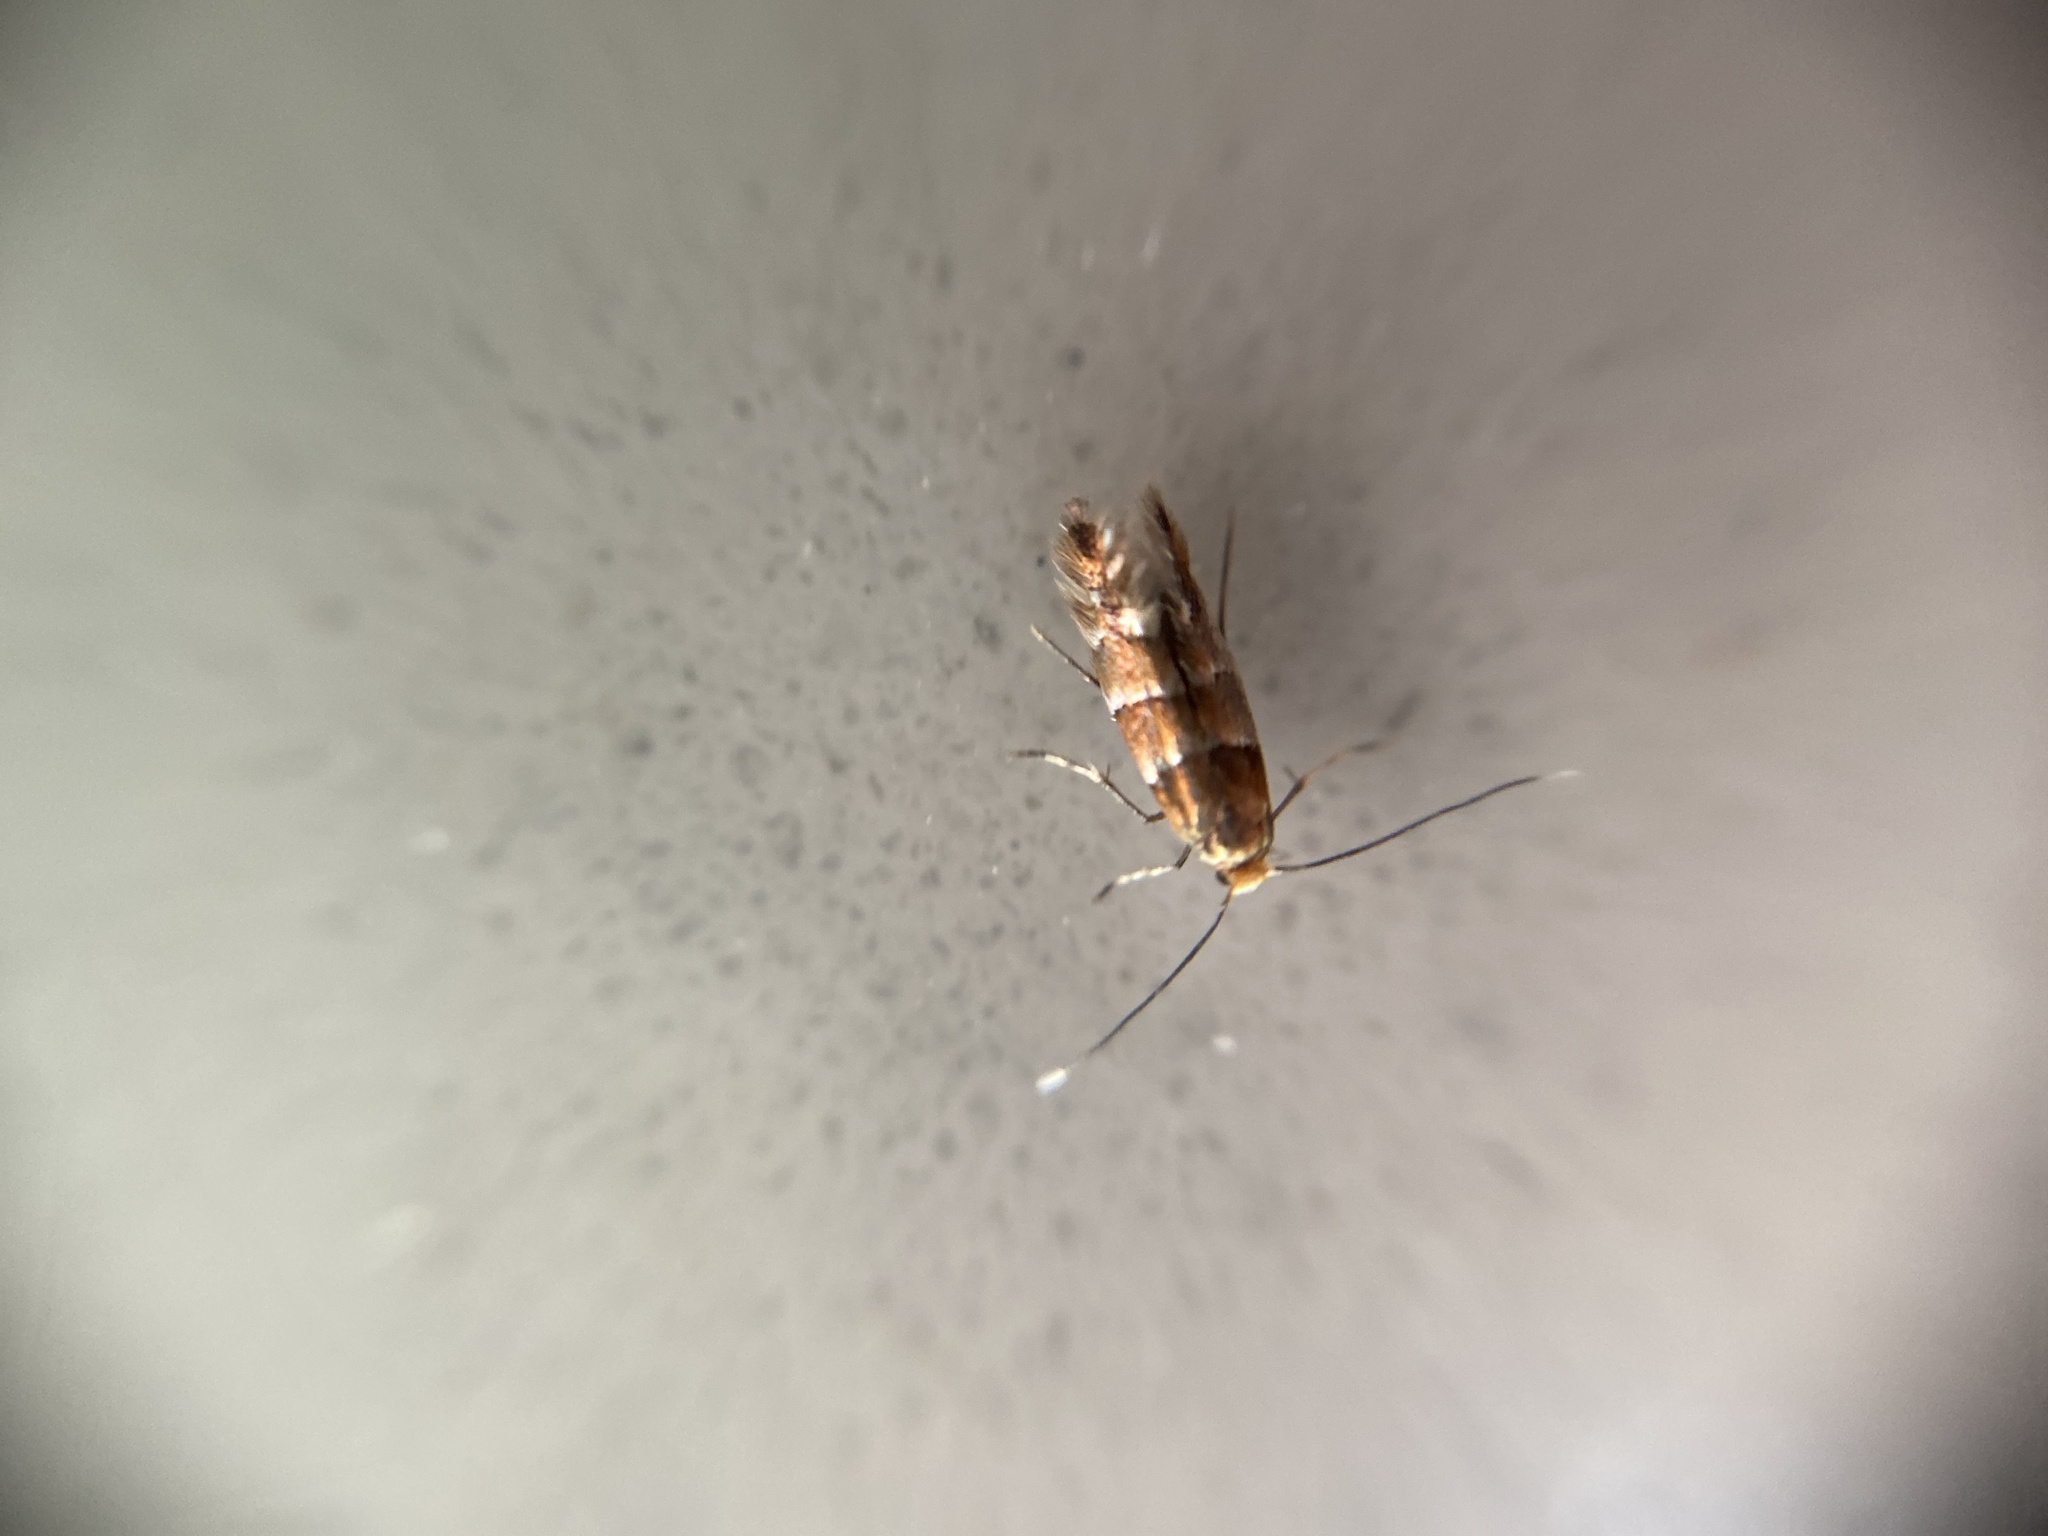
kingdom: Animalia
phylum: Arthropoda
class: Insecta
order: Lepidoptera
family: Gracillariidae
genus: Cameraria
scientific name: Cameraria ohridella
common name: Horse-chestnut leaf-miner
